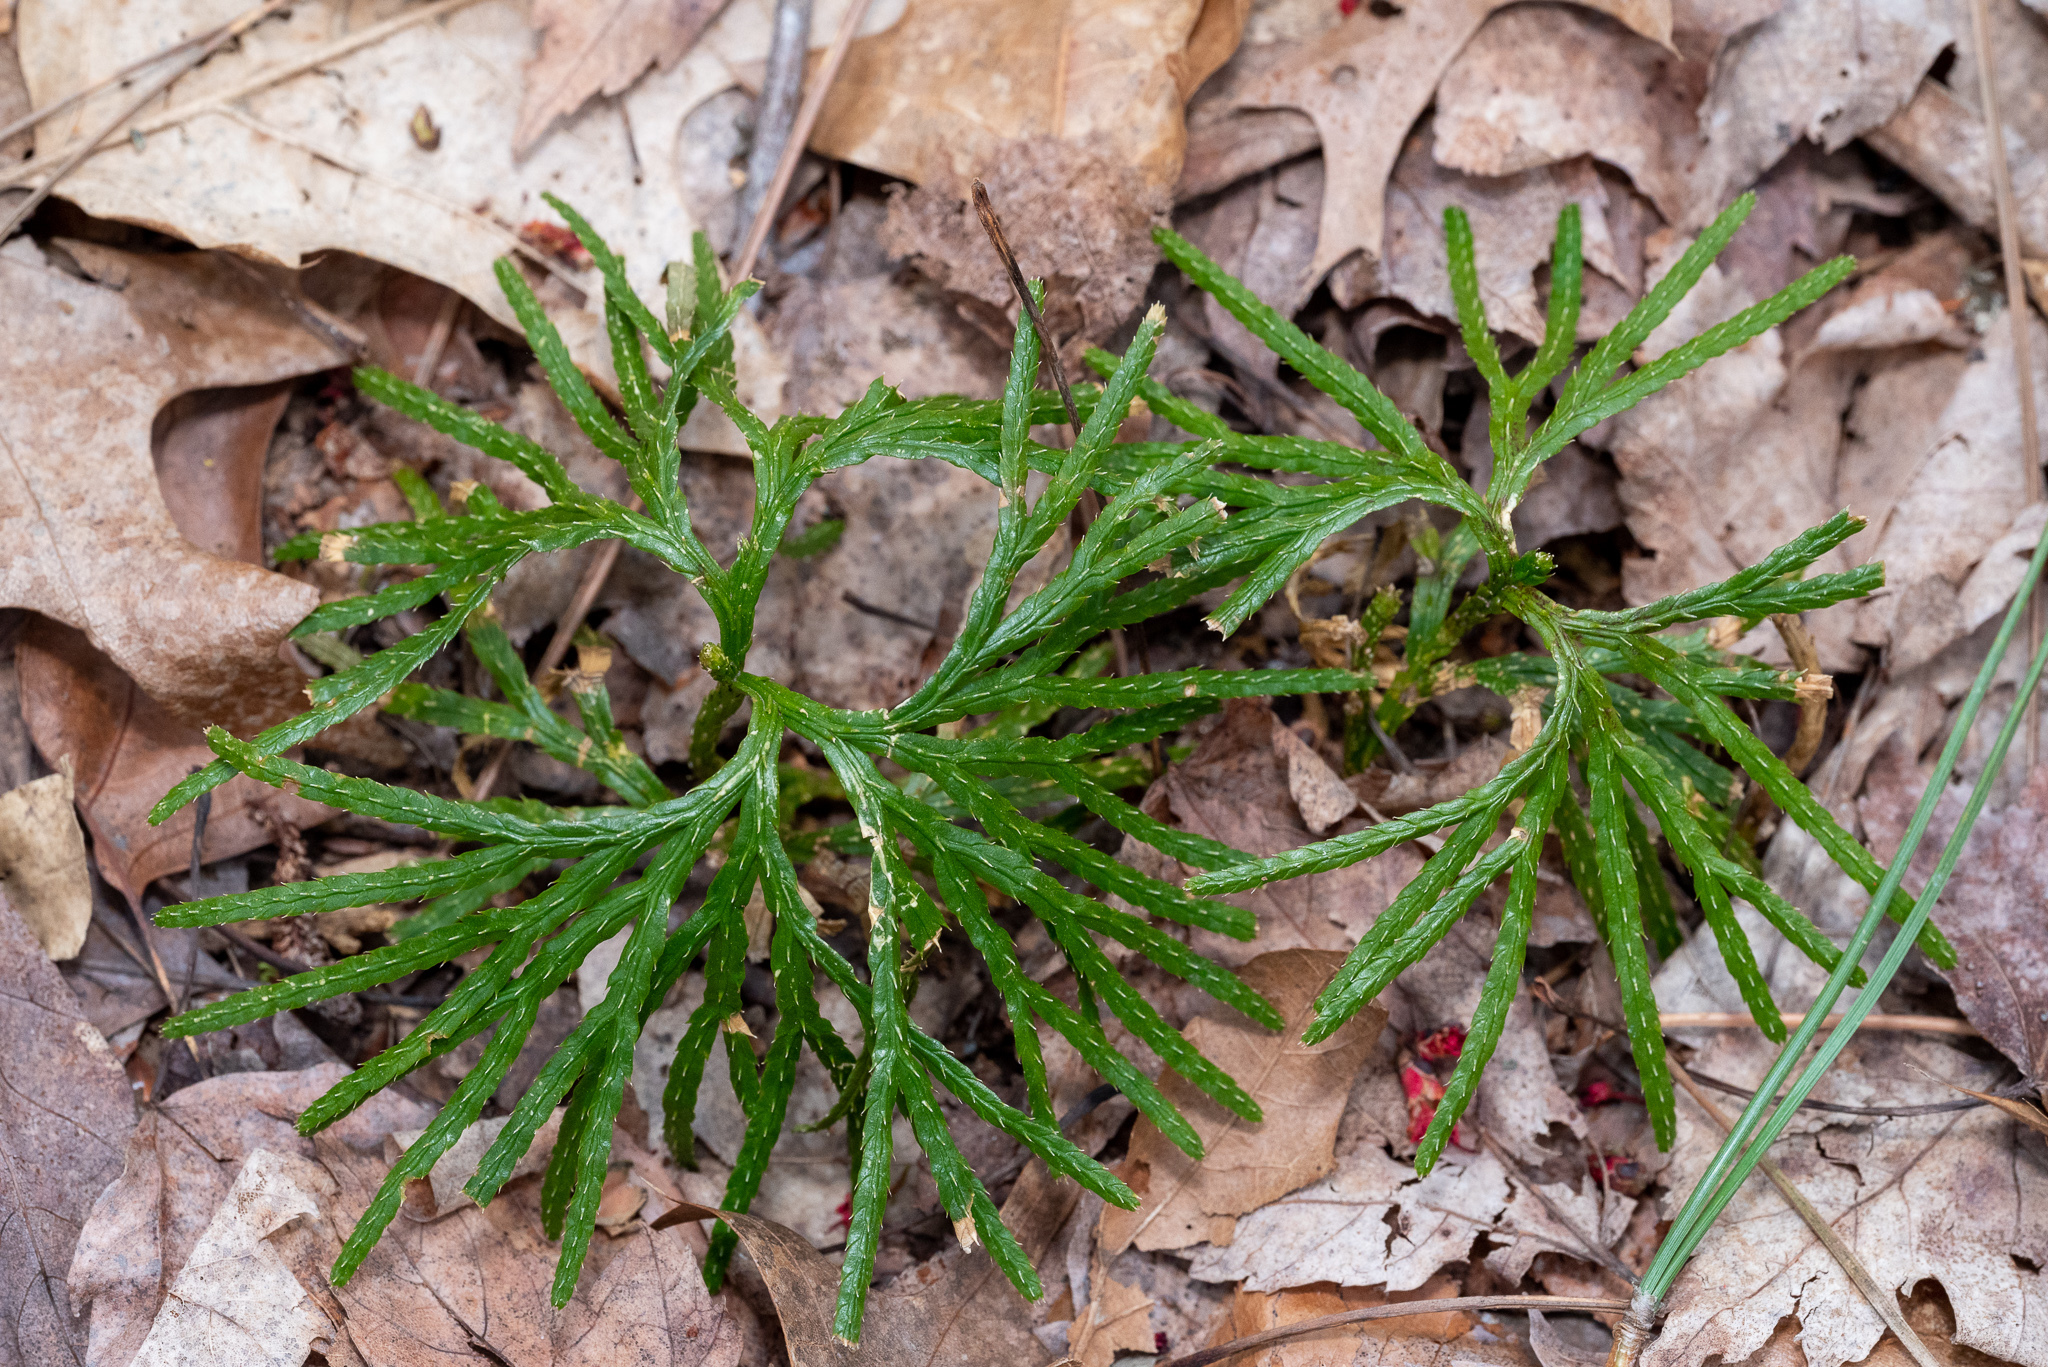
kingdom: Plantae
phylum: Tracheophyta
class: Lycopodiopsida
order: Lycopodiales
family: Lycopodiaceae
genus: Diphasiastrum
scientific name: Diphasiastrum digitatum
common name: Southern running-pine
